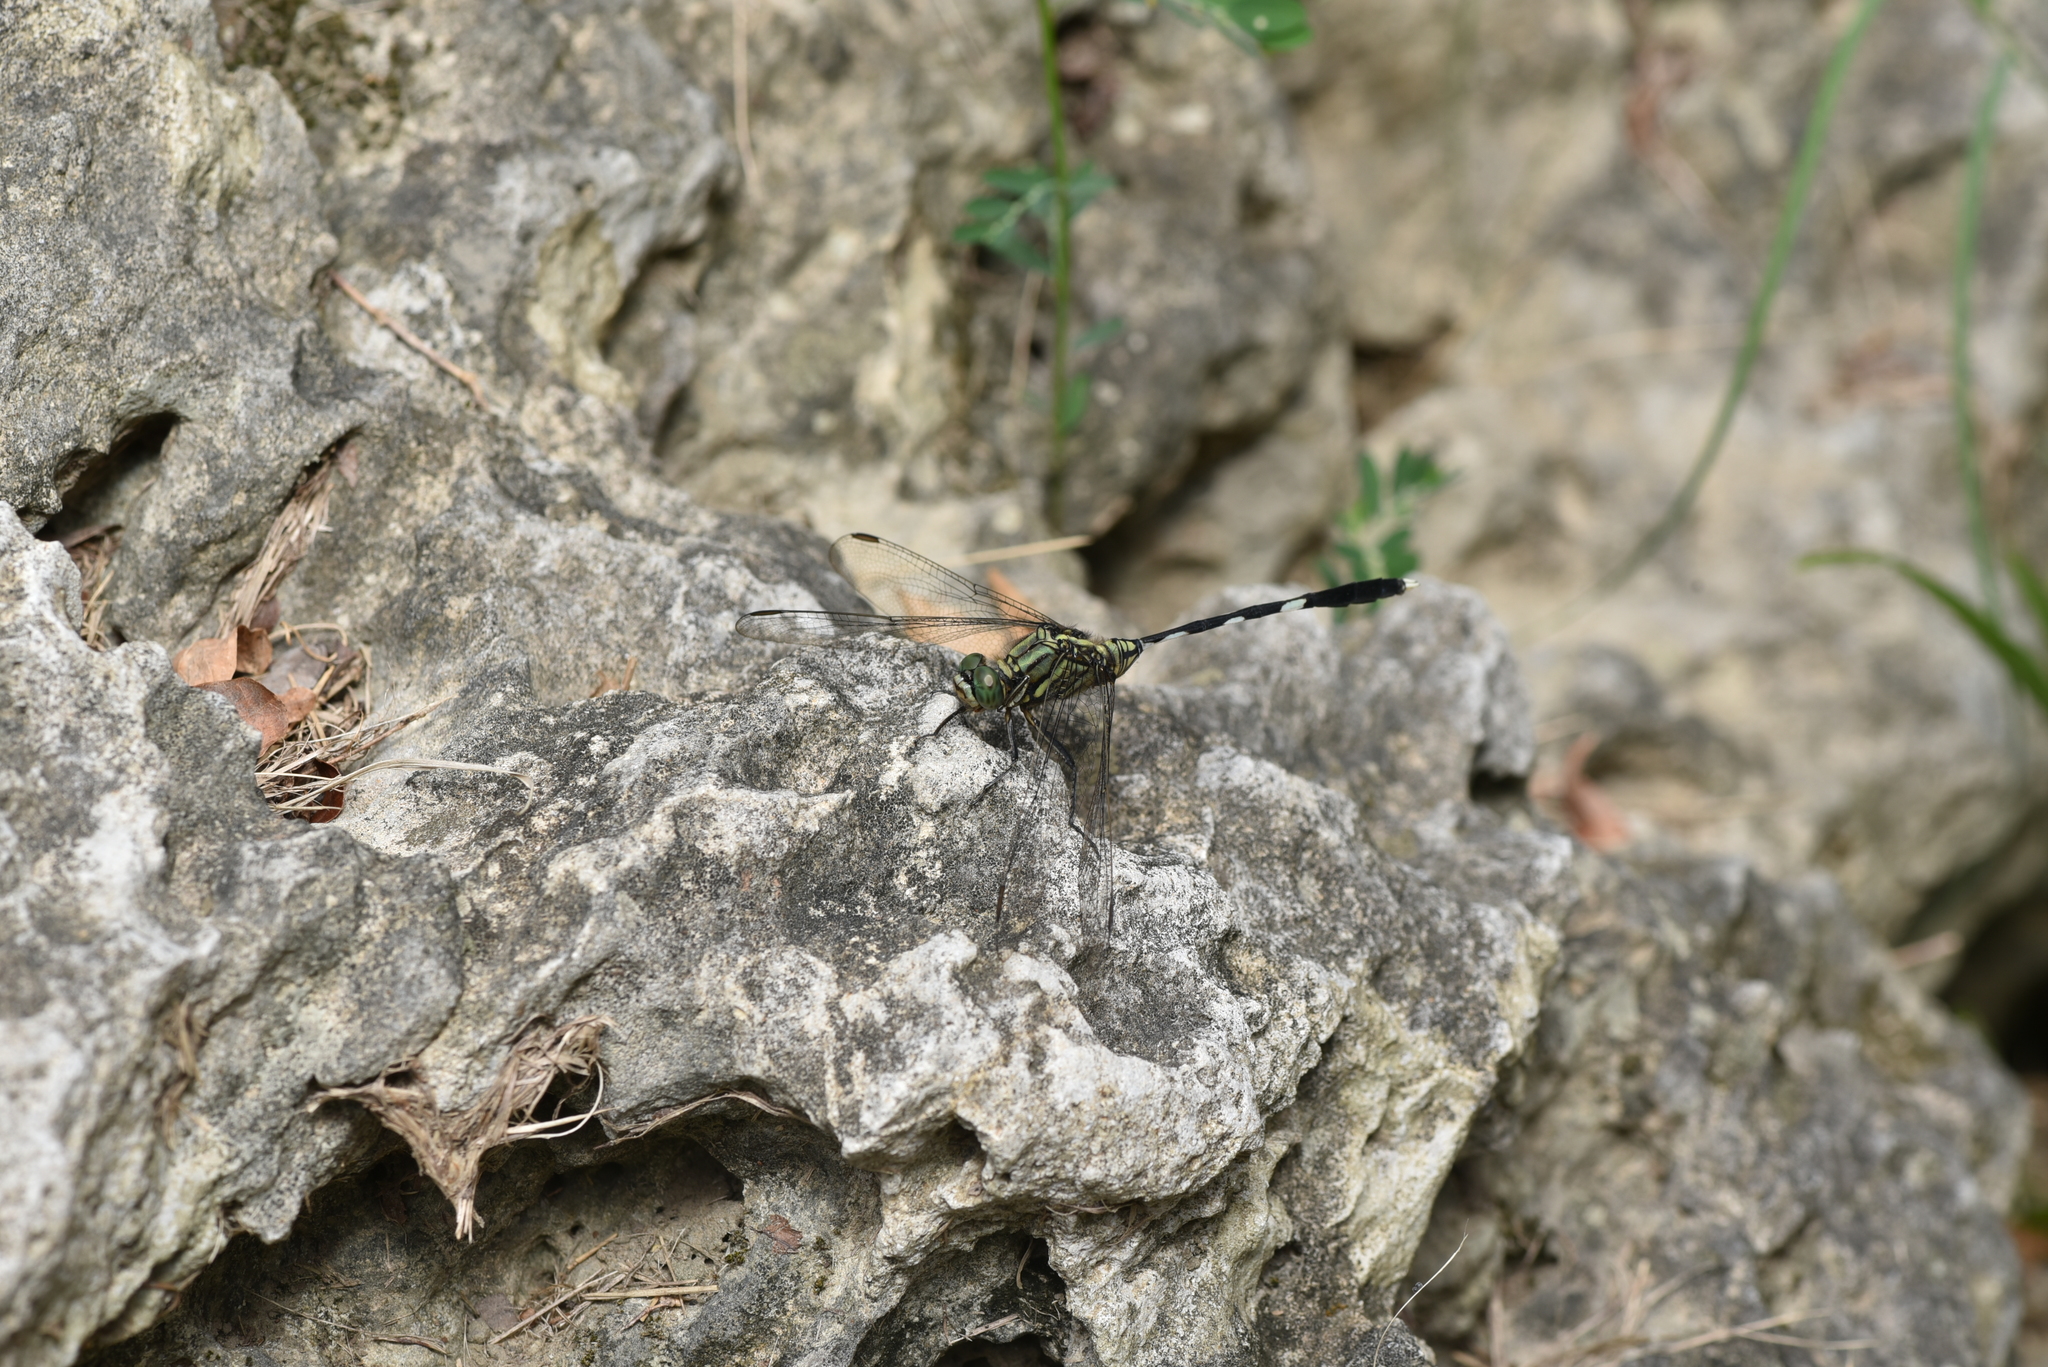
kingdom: Animalia
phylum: Arthropoda
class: Insecta
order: Odonata
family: Libellulidae
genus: Orthetrum
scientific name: Orthetrum sabina
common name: Slender skimmer
